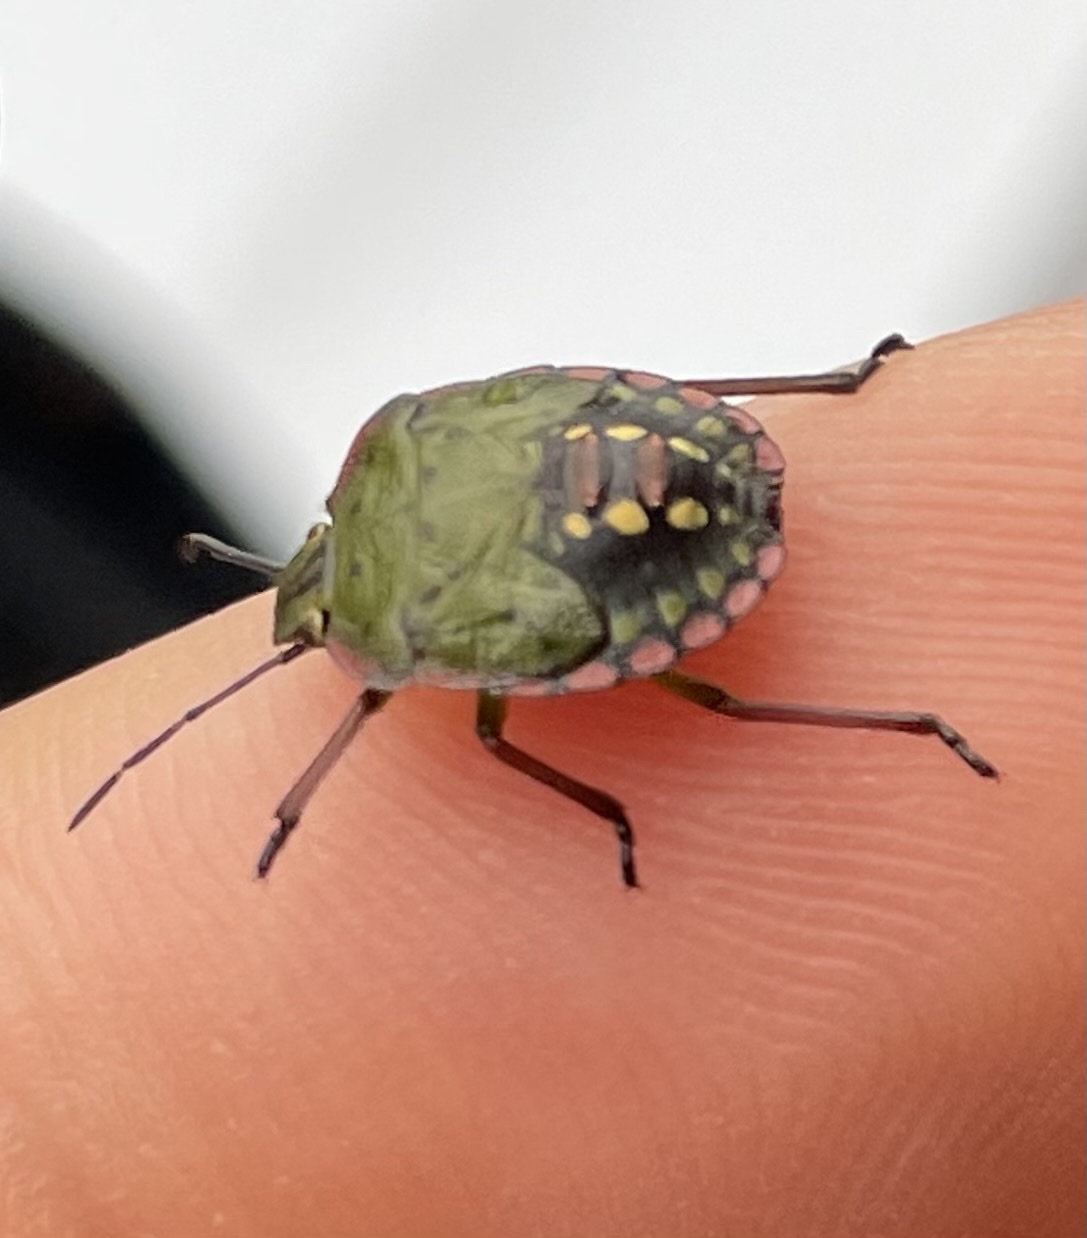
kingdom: Animalia
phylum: Arthropoda
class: Insecta
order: Hemiptera
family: Pentatomidae
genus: Nezara
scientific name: Nezara viridula
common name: Southern green stink bug
